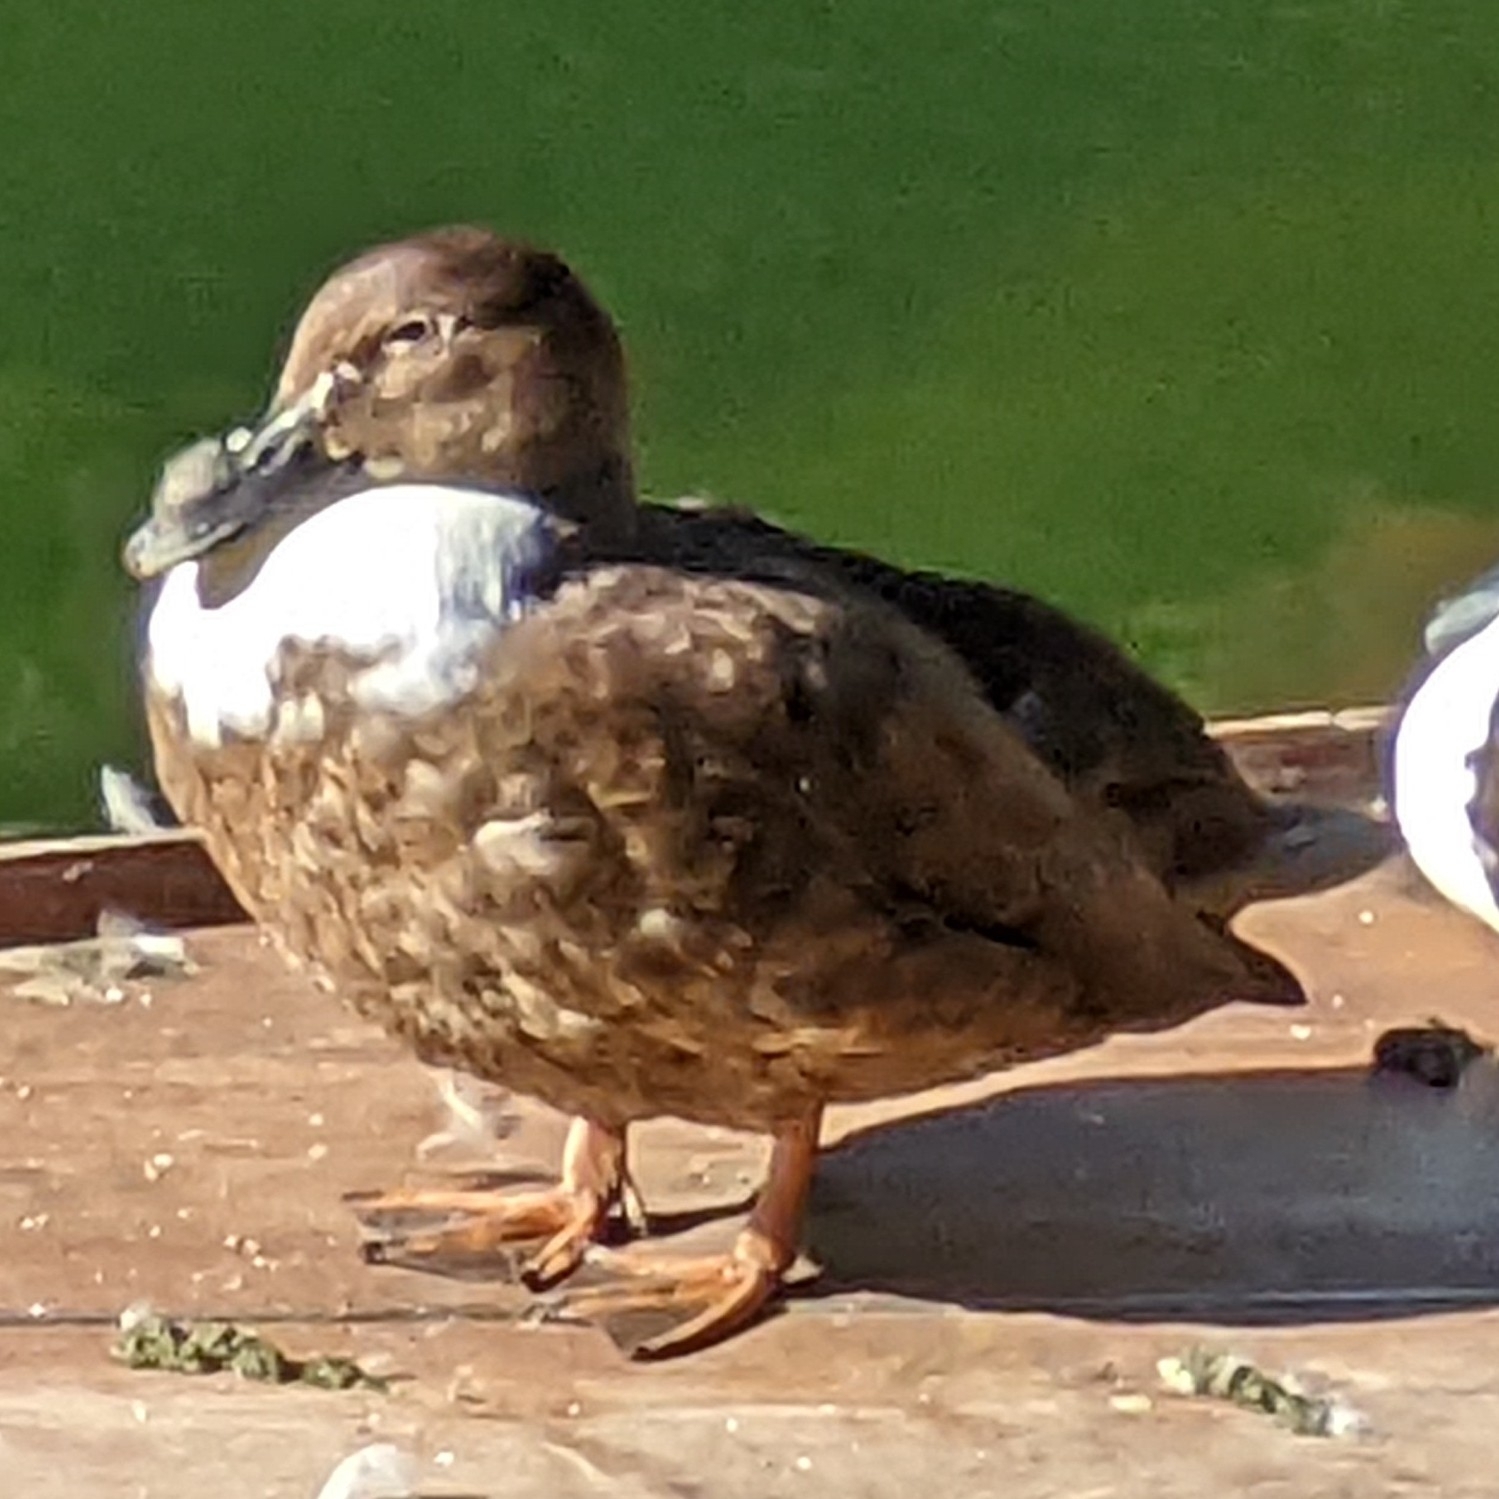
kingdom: Animalia
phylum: Chordata
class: Aves
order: Anseriformes
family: Anatidae
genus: Anas
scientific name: Anas platyrhynchos
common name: Mallard
